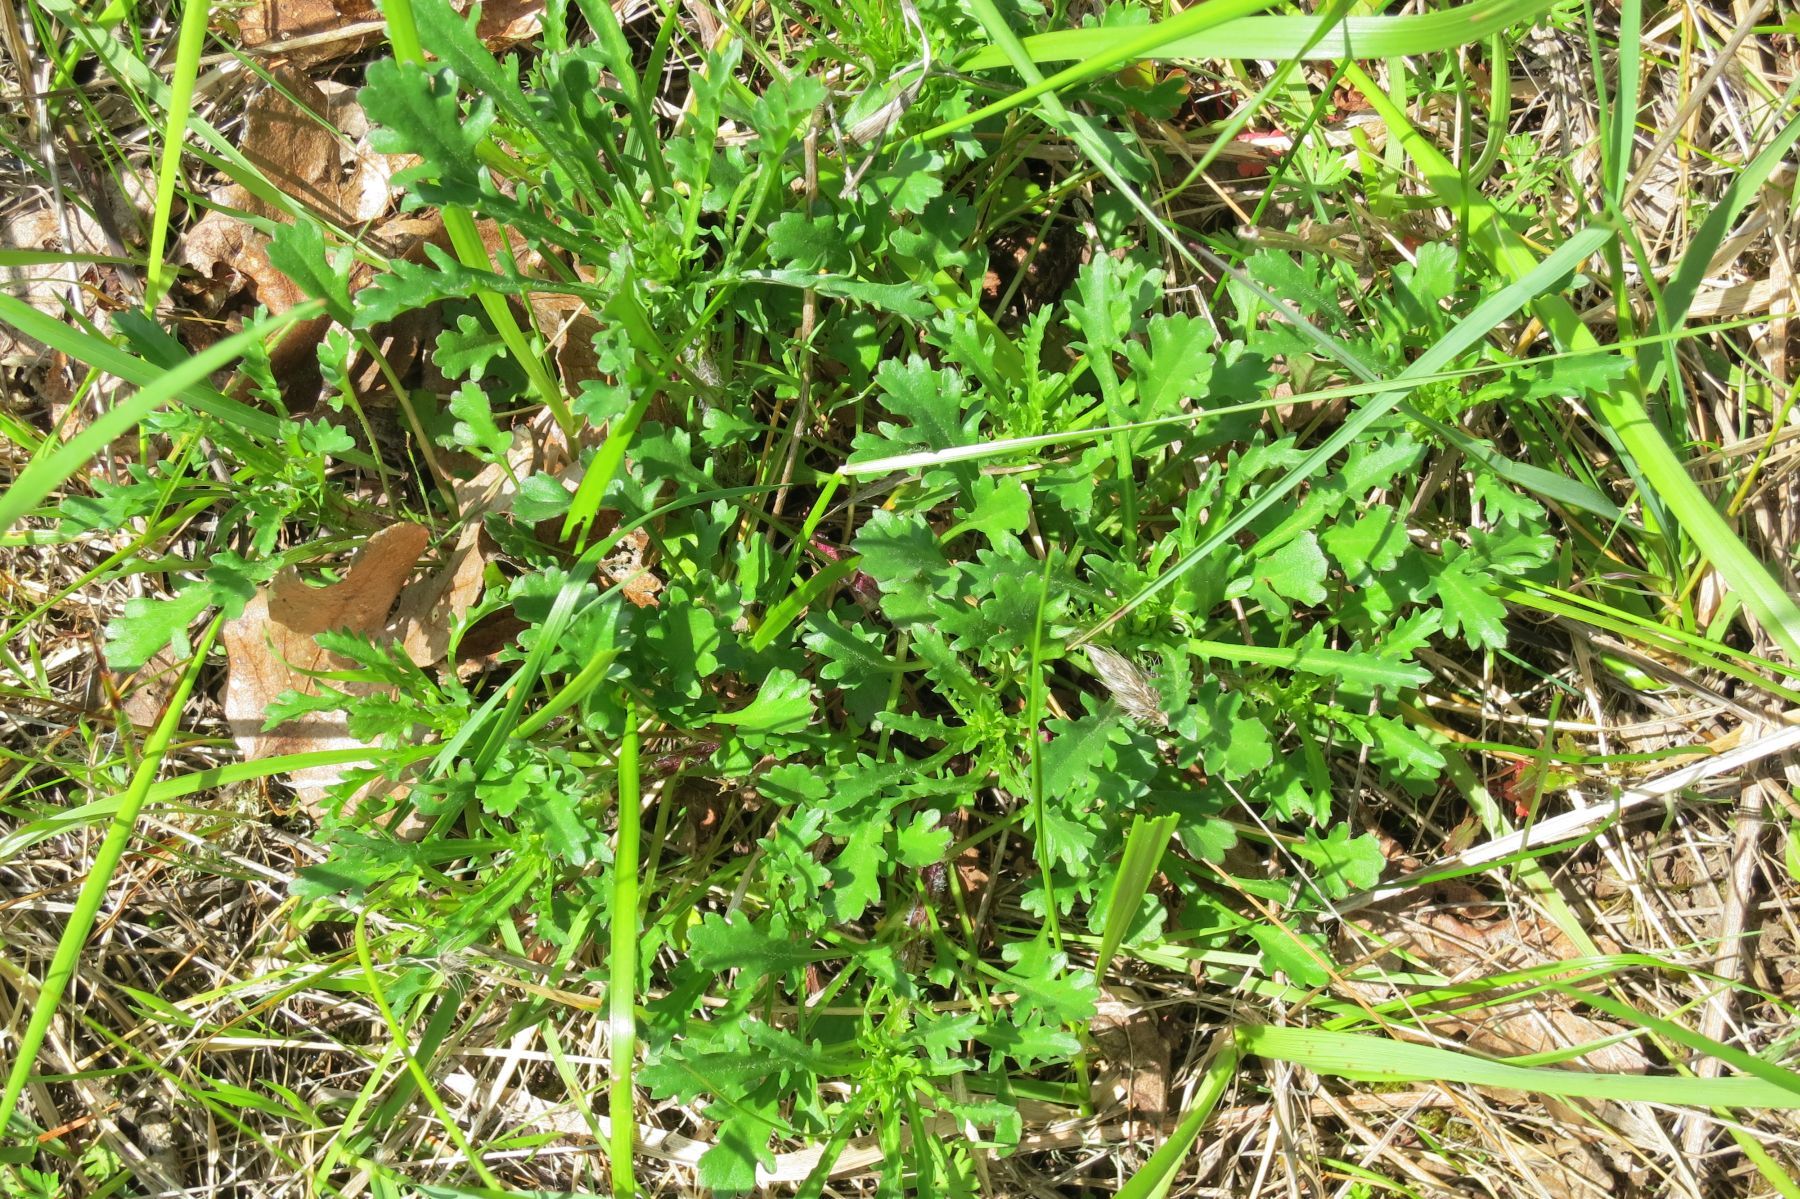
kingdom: Plantae
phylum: Tracheophyta
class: Magnoliopsida
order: Asterales
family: Asteraceae
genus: Leucanthemum
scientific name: Leucanthemum vulgare
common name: Oxeye daisy
